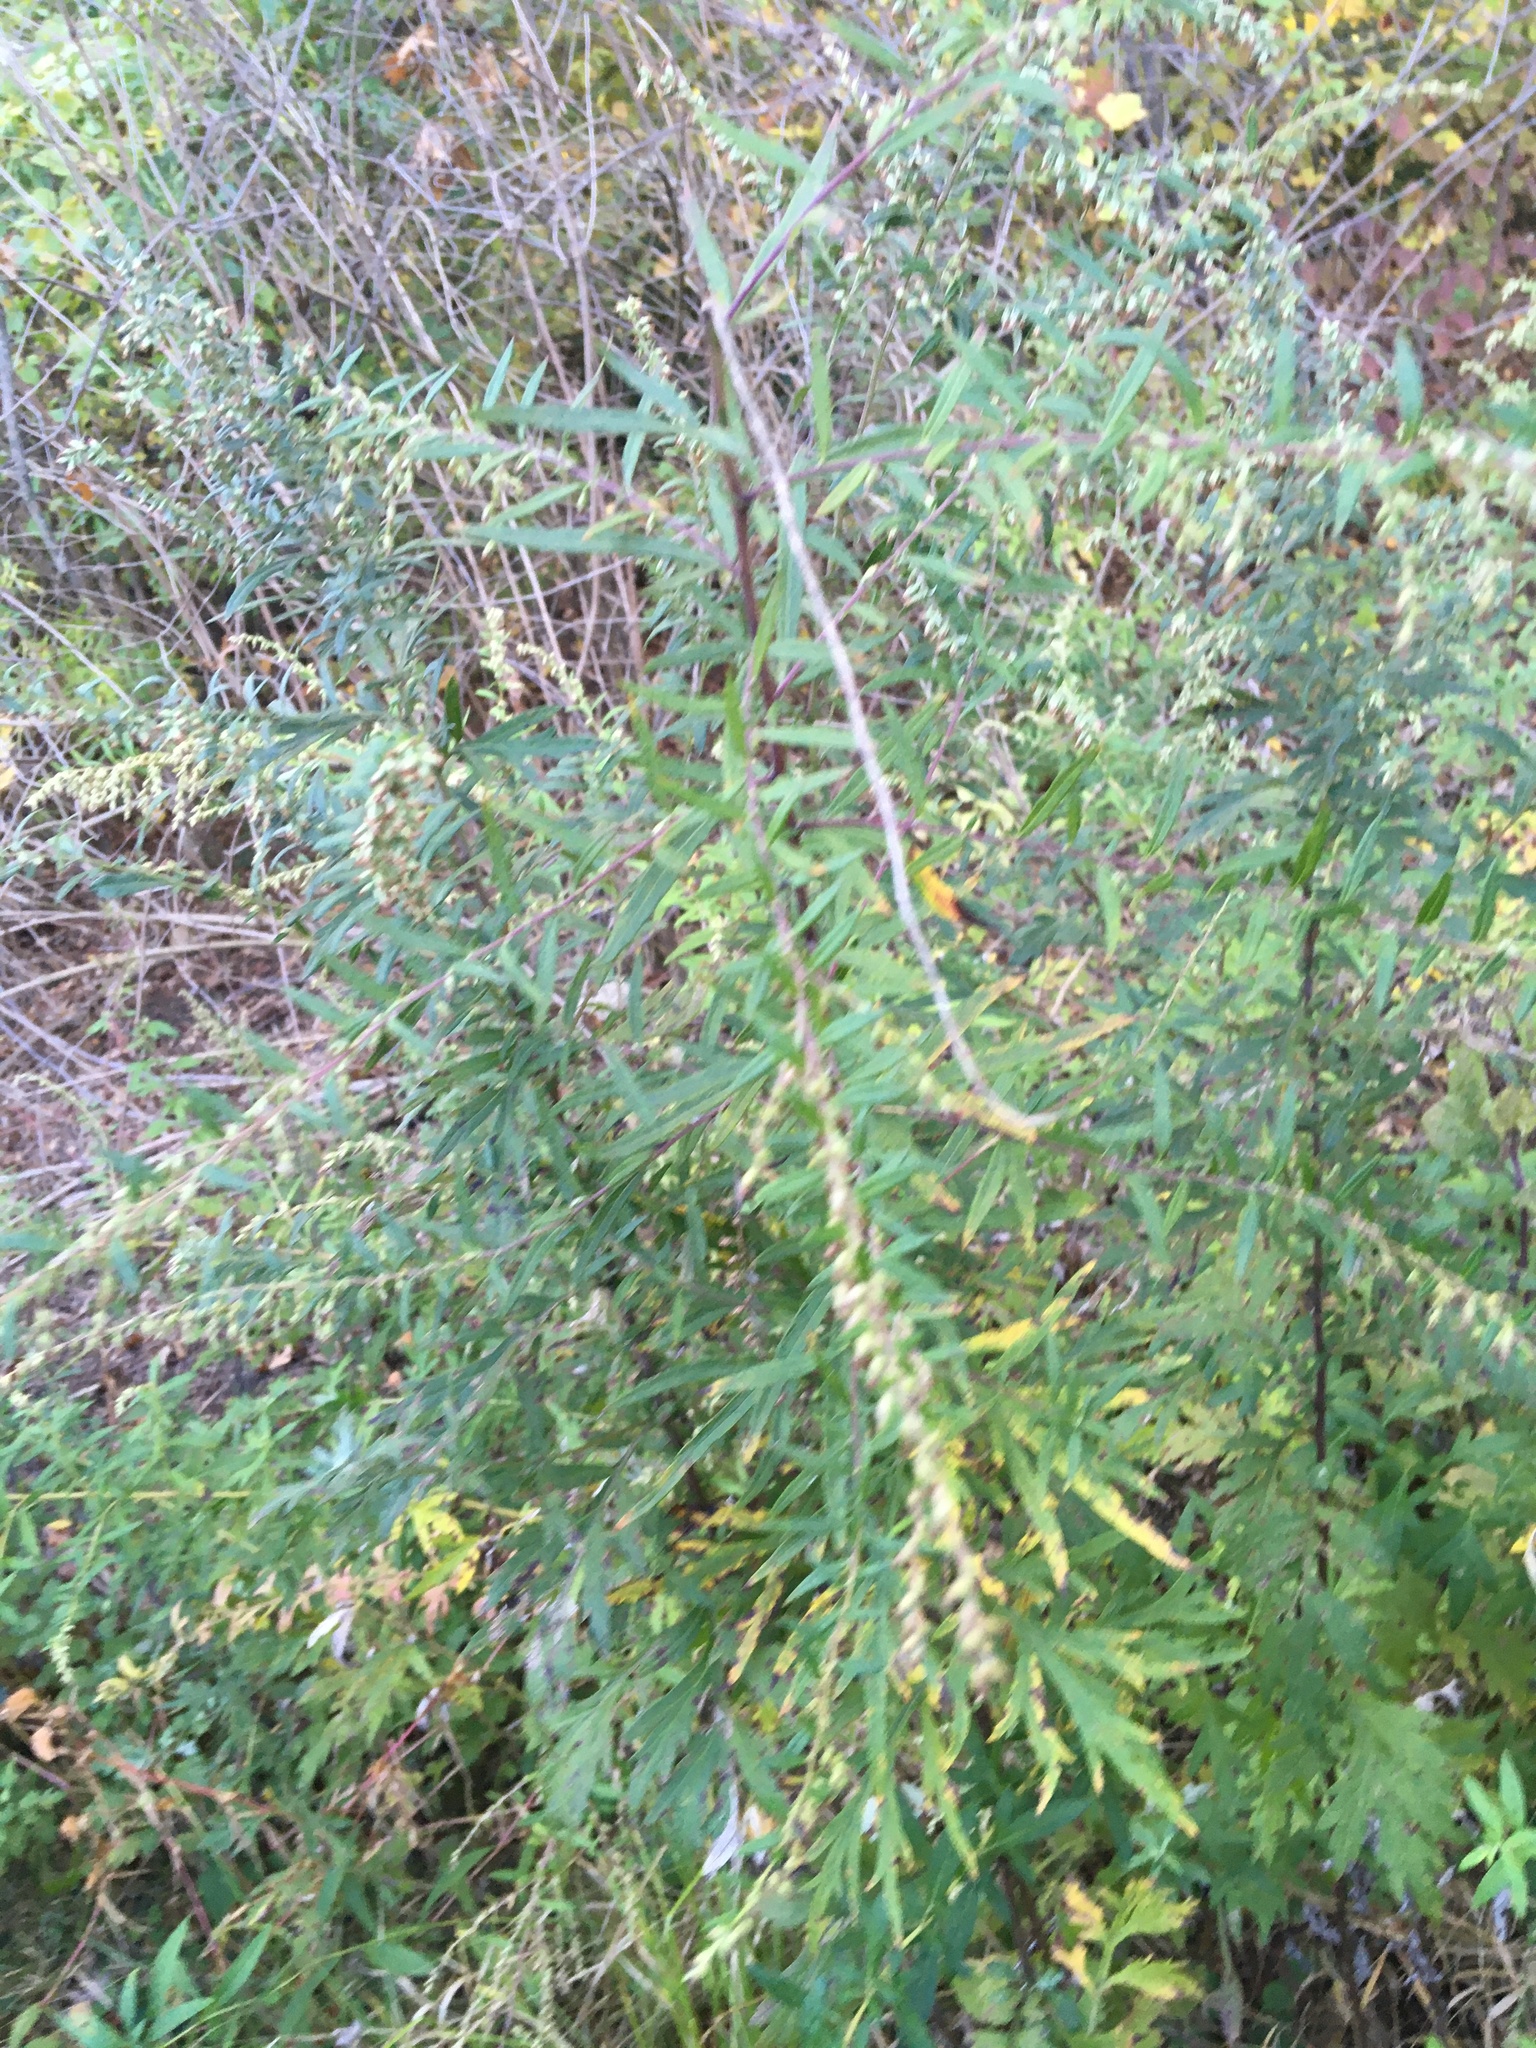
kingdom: Plantae
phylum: Tracheophyta
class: Magnoliopsida
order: Asterales
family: Asteraceae
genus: Artemisia
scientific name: Artemisia vulgaris
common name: Mugwort
